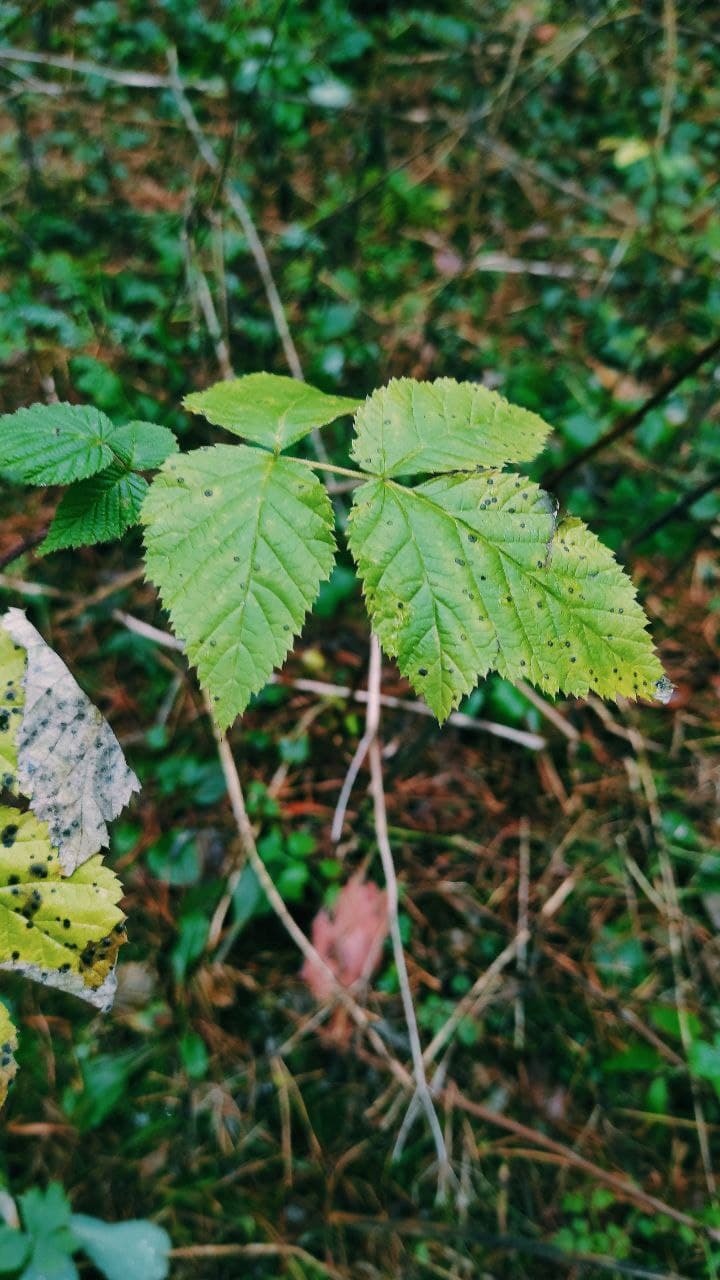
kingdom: Plantae
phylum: Tracheophyta
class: Magnoliopsida
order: Rosales
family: Rosaceae
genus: Rubus
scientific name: Rubus idaeus
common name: Raspberry
